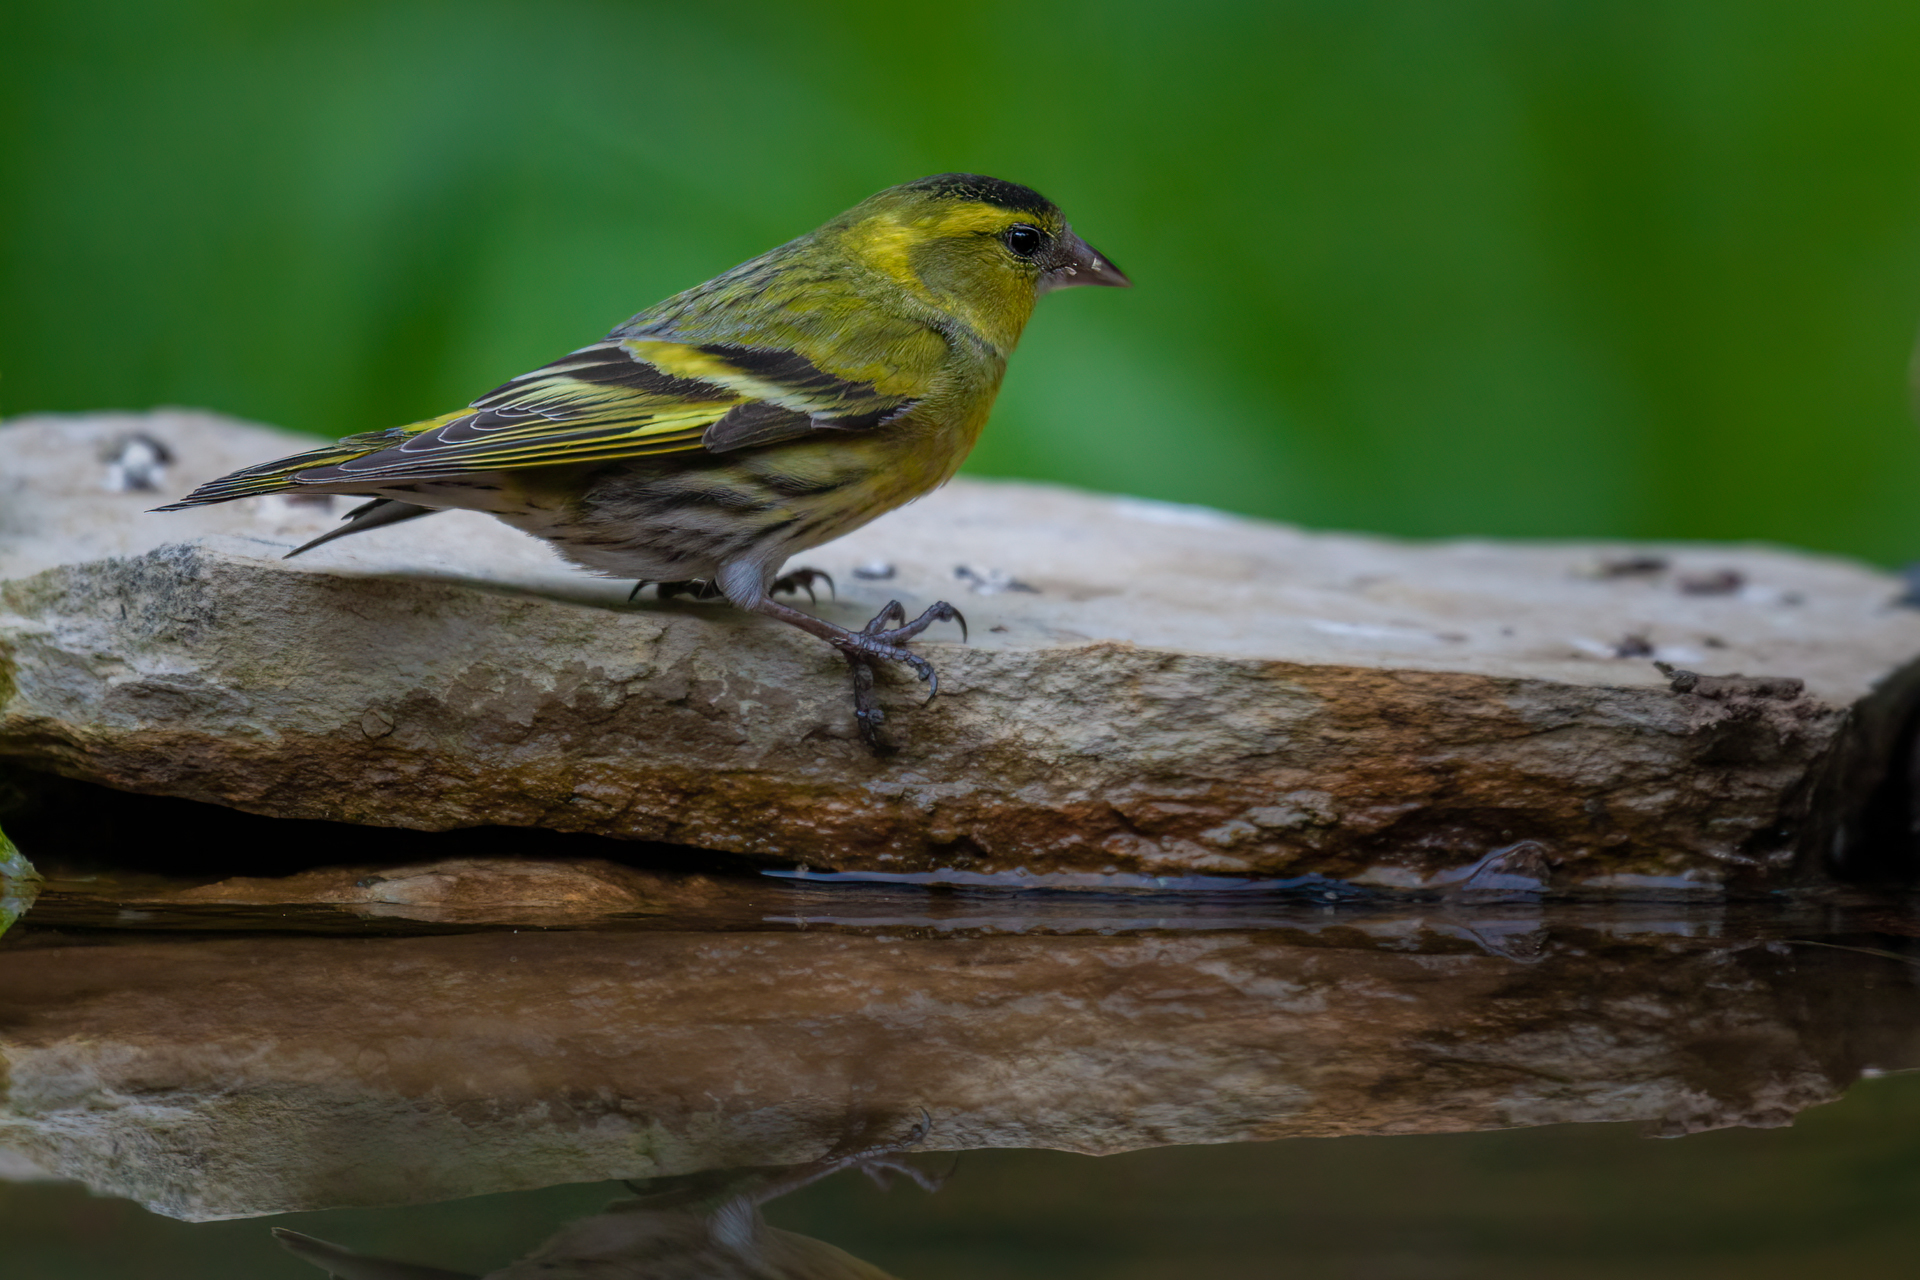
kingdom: Animalia
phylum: Chordata
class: Aves
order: Passeriformes
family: Fringillidae
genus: Spinus
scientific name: Spinus spinus
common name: Eurasian siskin
